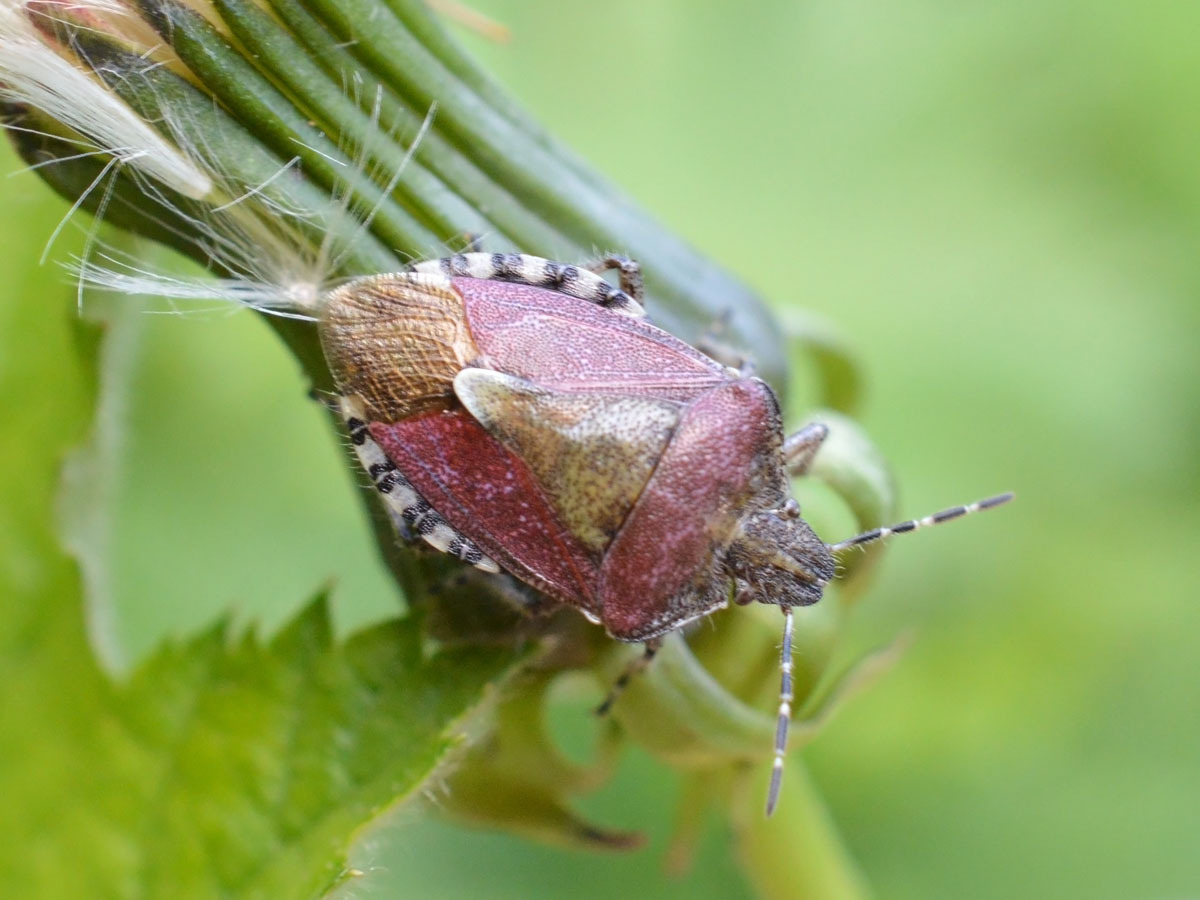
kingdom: Animalia
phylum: Arthropoda
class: Insecta
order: Hemiptera
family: Pentatomidae
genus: Dolycoris
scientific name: Dolycoris baccarum
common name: Sloe bug
